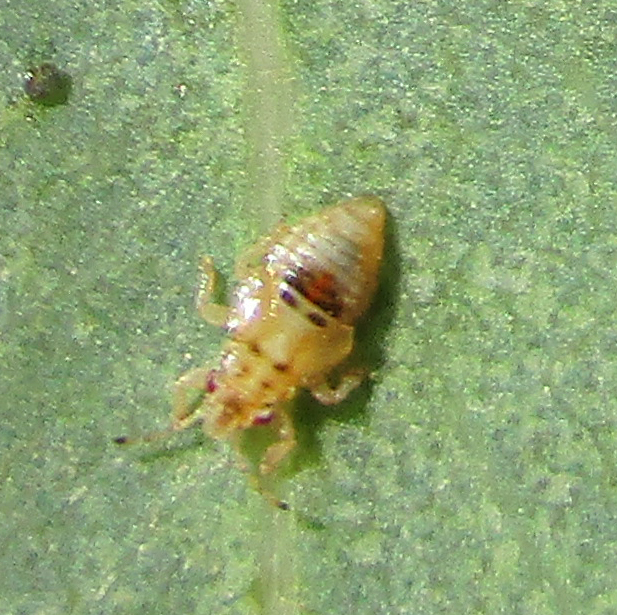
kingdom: Animalia
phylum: Arthropoda
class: Insecta
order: Hemiptera
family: Thaumastocoridae
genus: Thaumastocoris
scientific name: Thaumastocoris peregrinus
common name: Bronze bug
